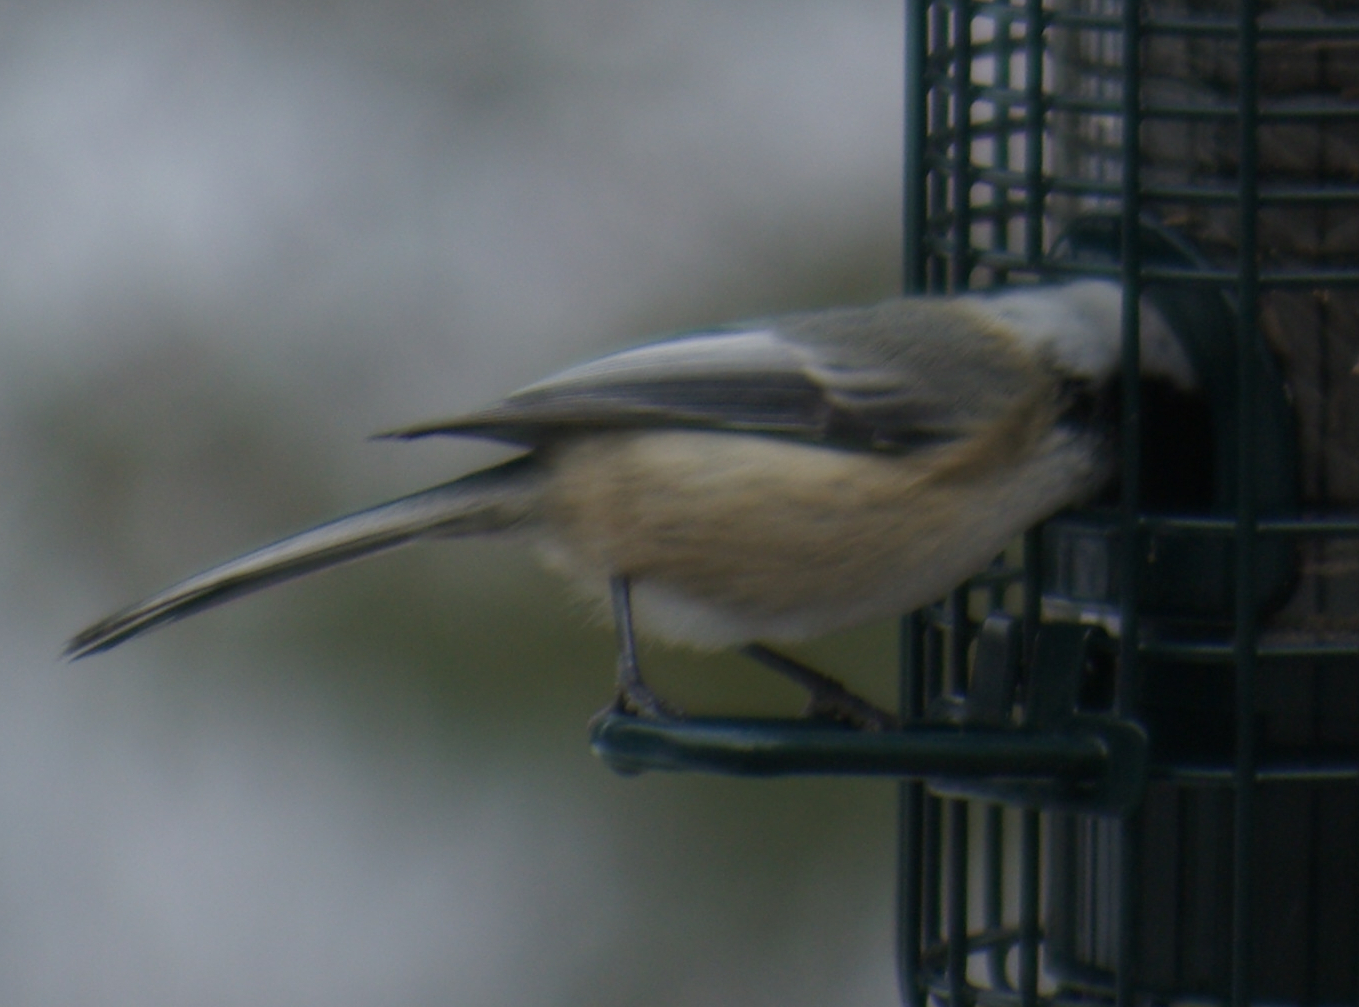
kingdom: Animalia
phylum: Chordata
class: Aves
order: Passeriformes
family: Paridae
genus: Poecile
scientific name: Poecile atricapillus
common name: Black-capped chickadee
